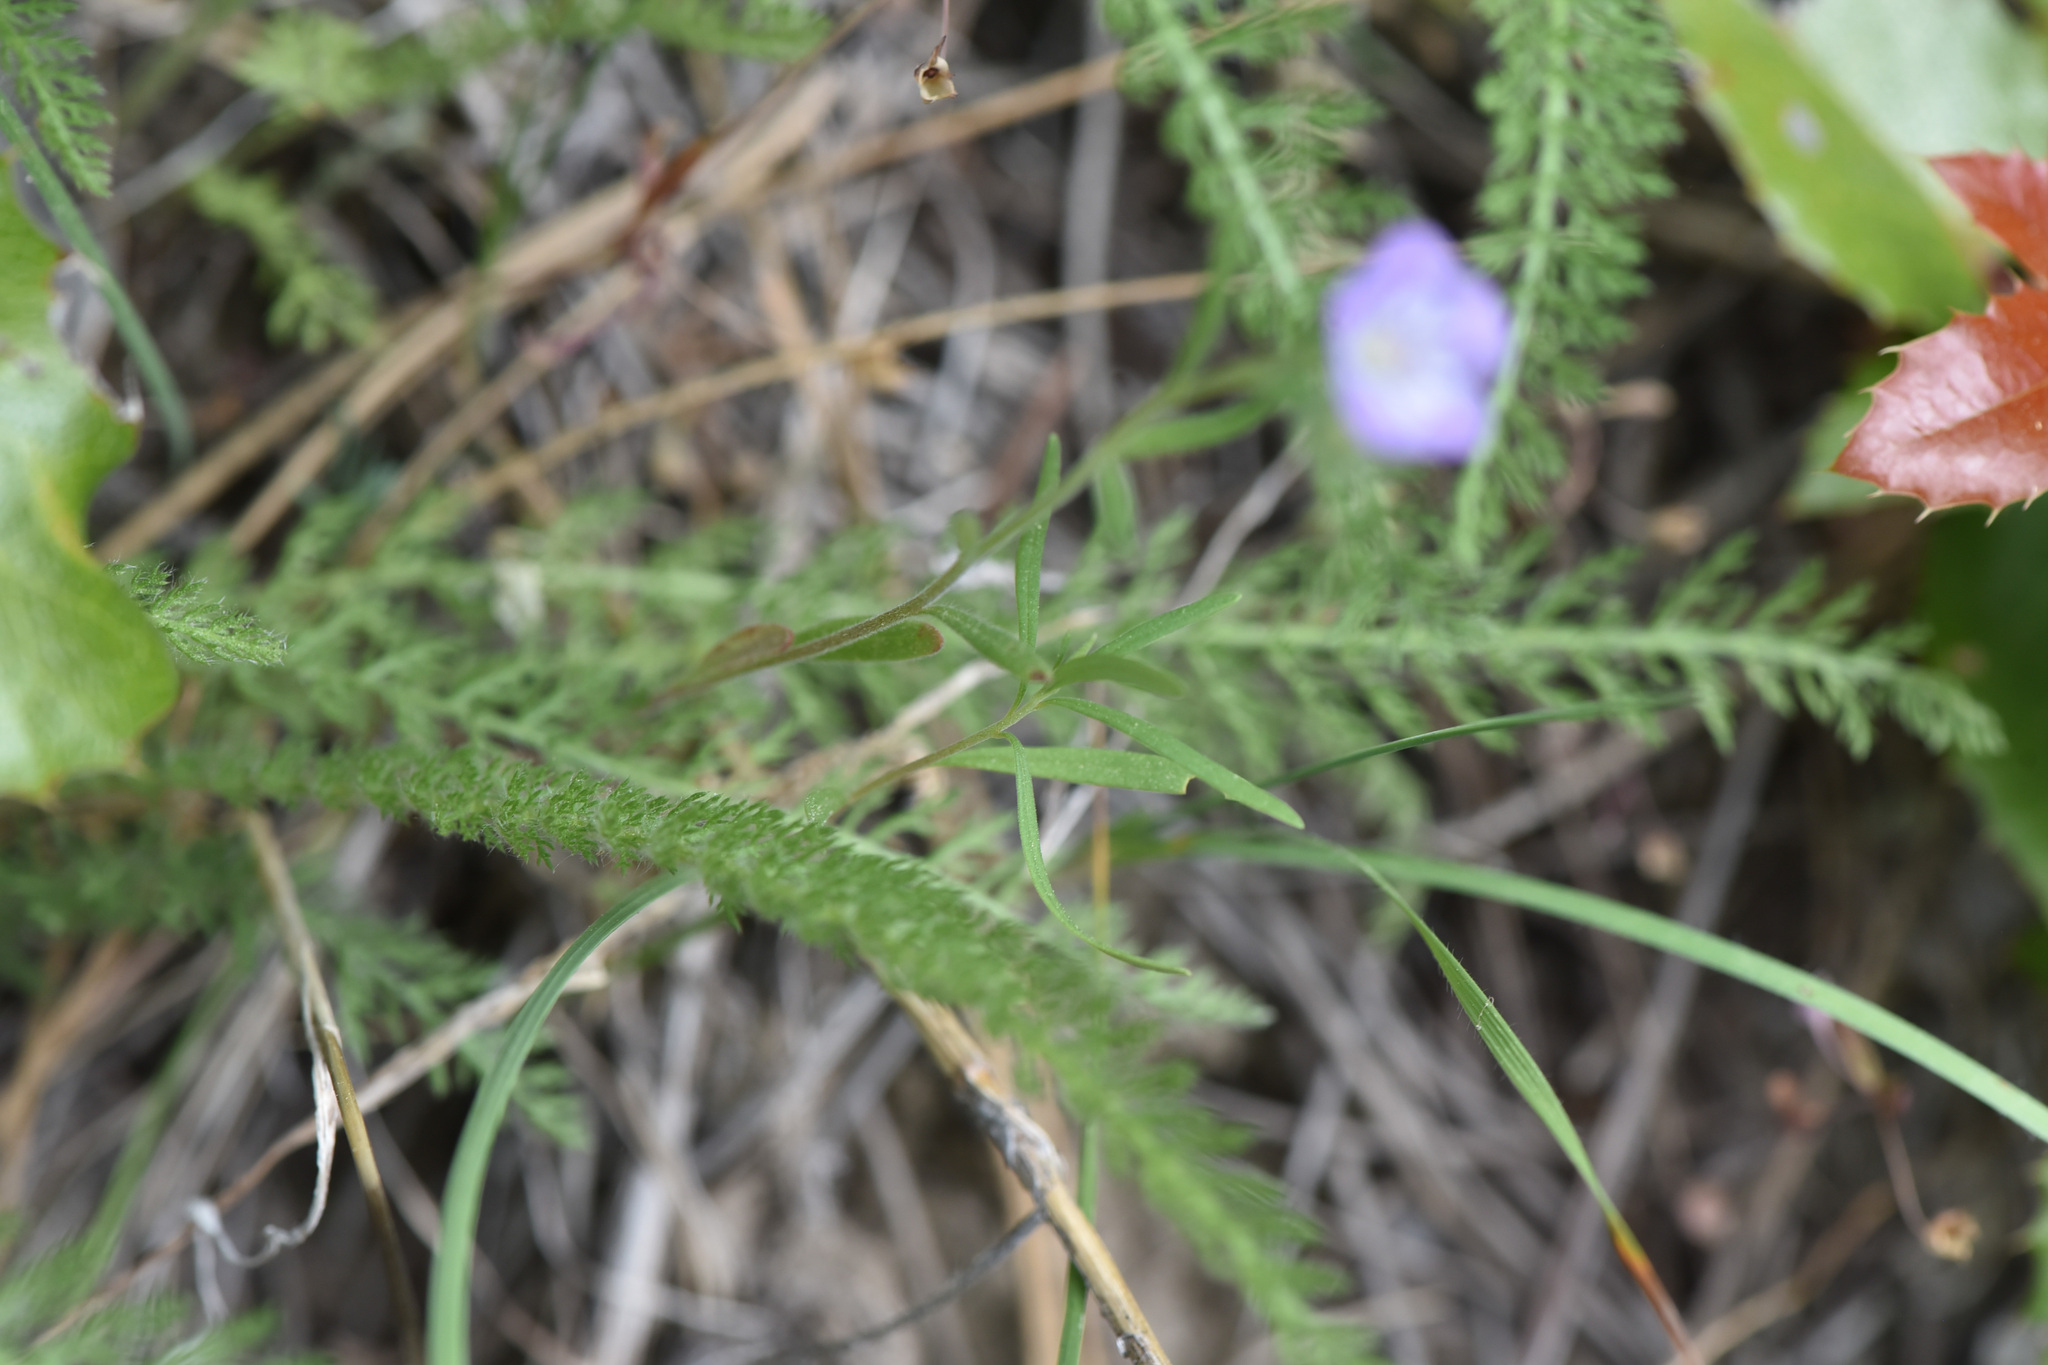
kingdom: Plantae
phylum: Tracheophyta
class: Magnoliopsida
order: Asterales
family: Asteraceae
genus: Achillea
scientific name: Achillea millefolium
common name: Yarrow
